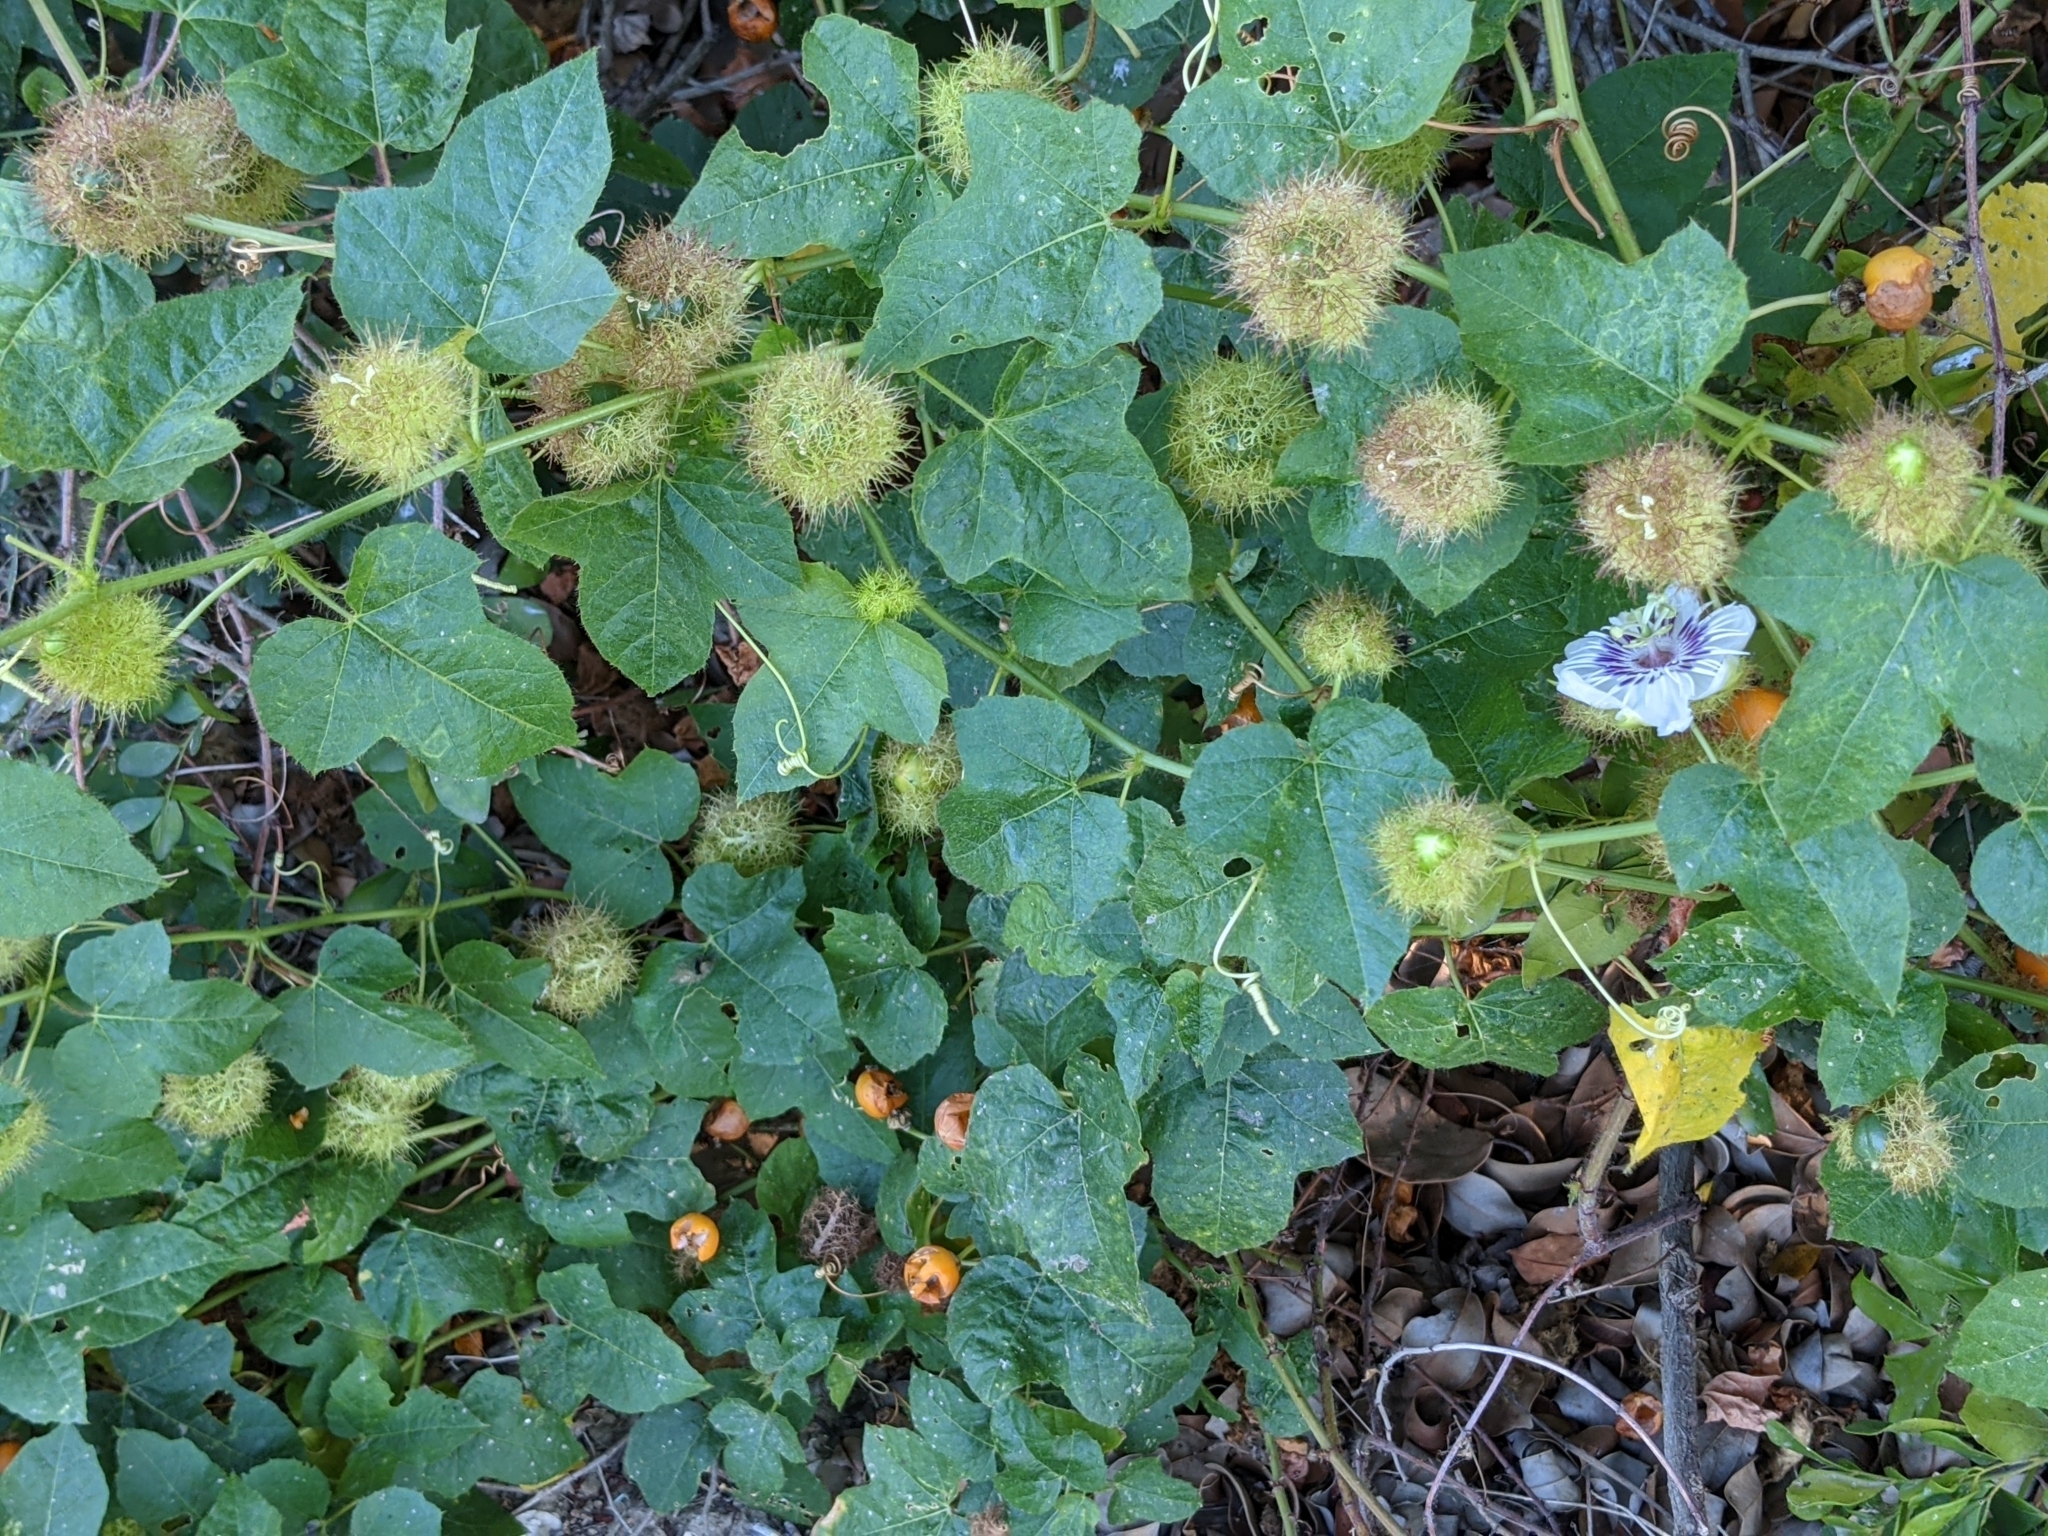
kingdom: Plantae
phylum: Tracheophyta
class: Magnoliopsida
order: Malpighiales
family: Passifloraceae
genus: Passiflora
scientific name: Passiflora vesicaria
